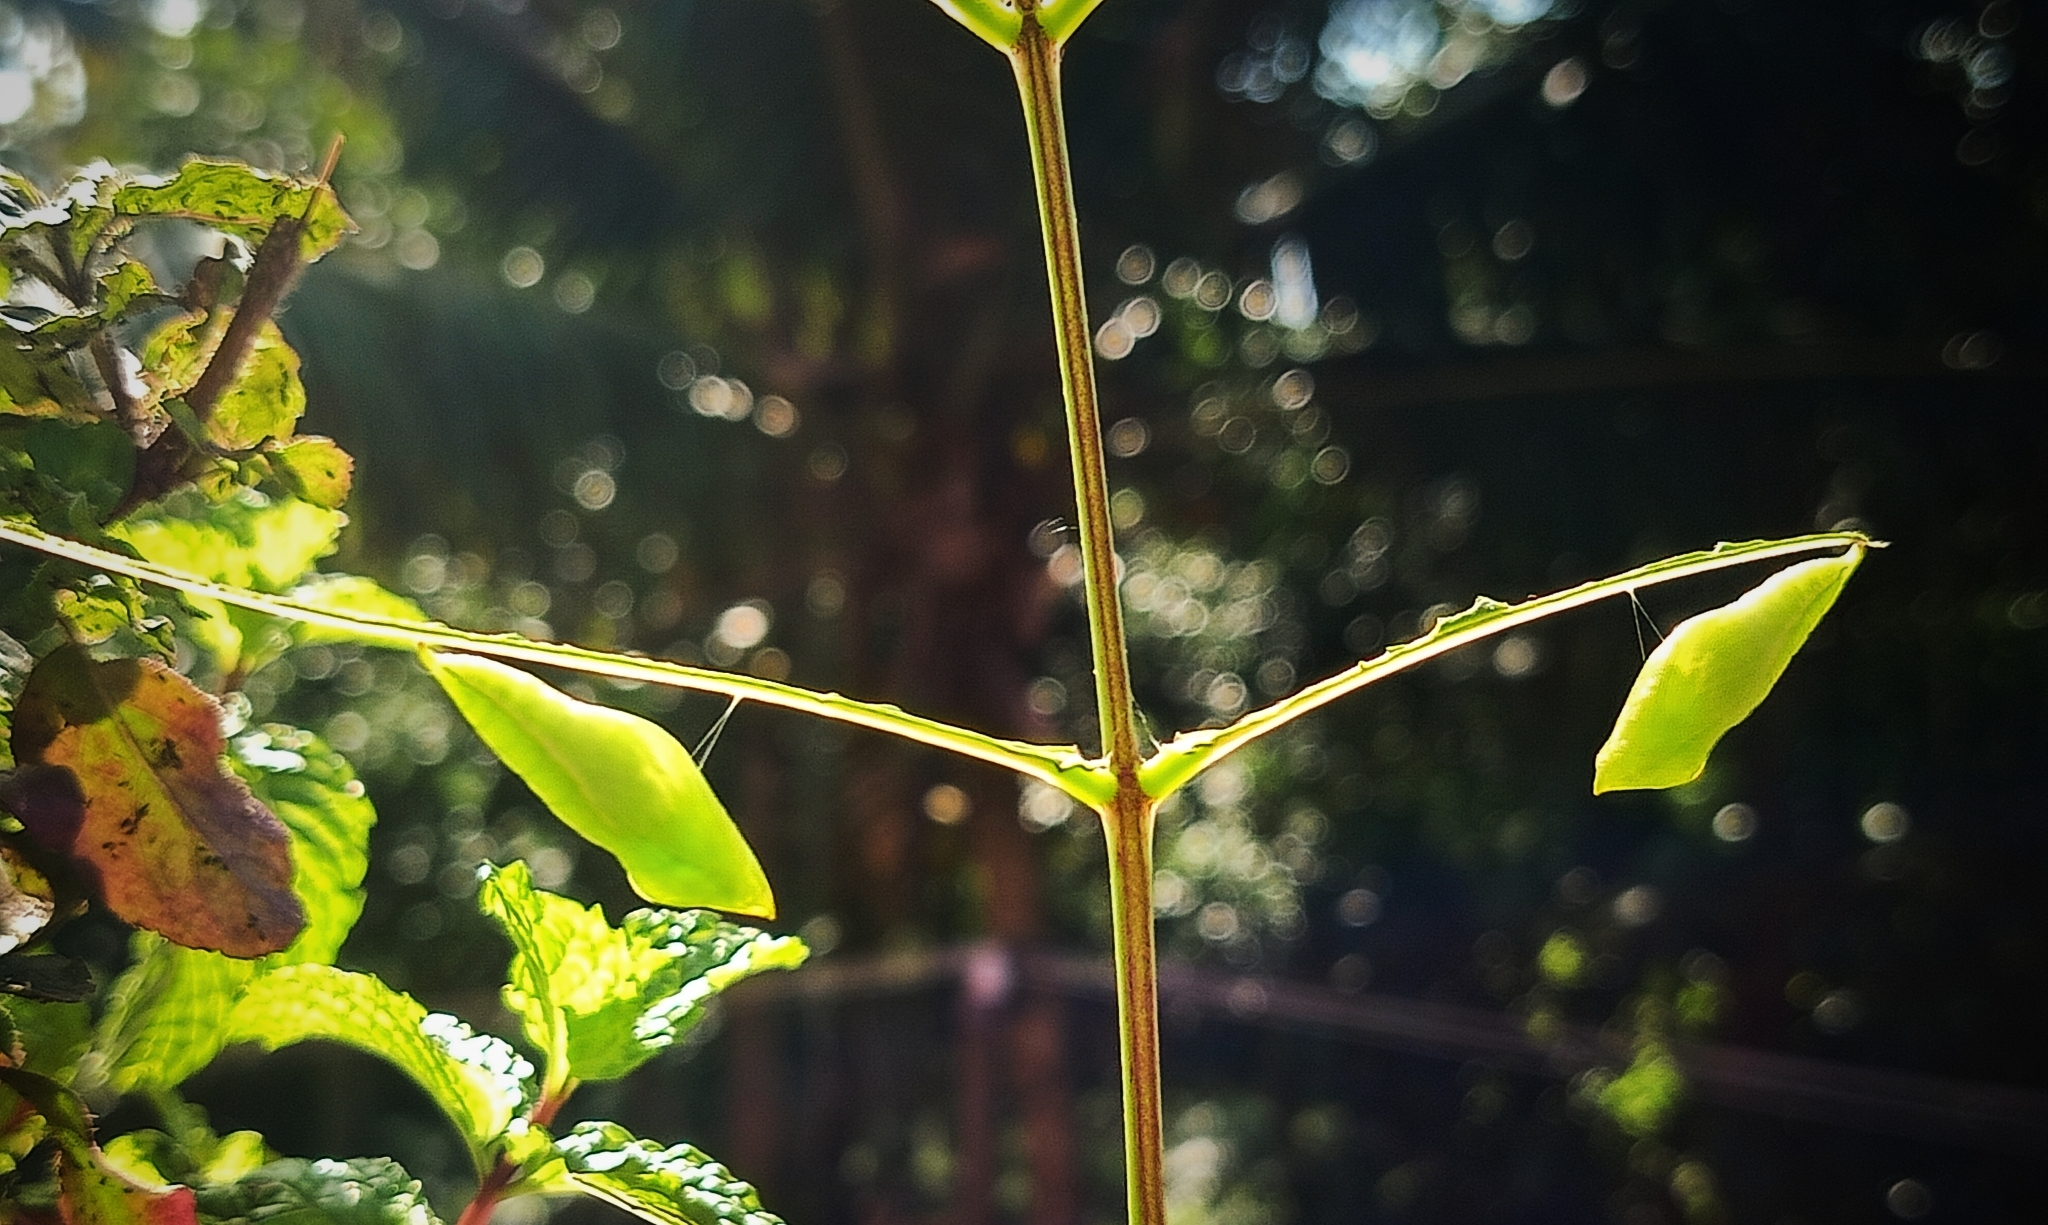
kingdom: Animalia
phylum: Arthropoda
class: Insecta
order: Lepidoptera
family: Pieridae
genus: Catopsilia
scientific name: Catopsilia pyranthe
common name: Mottled emigrant
